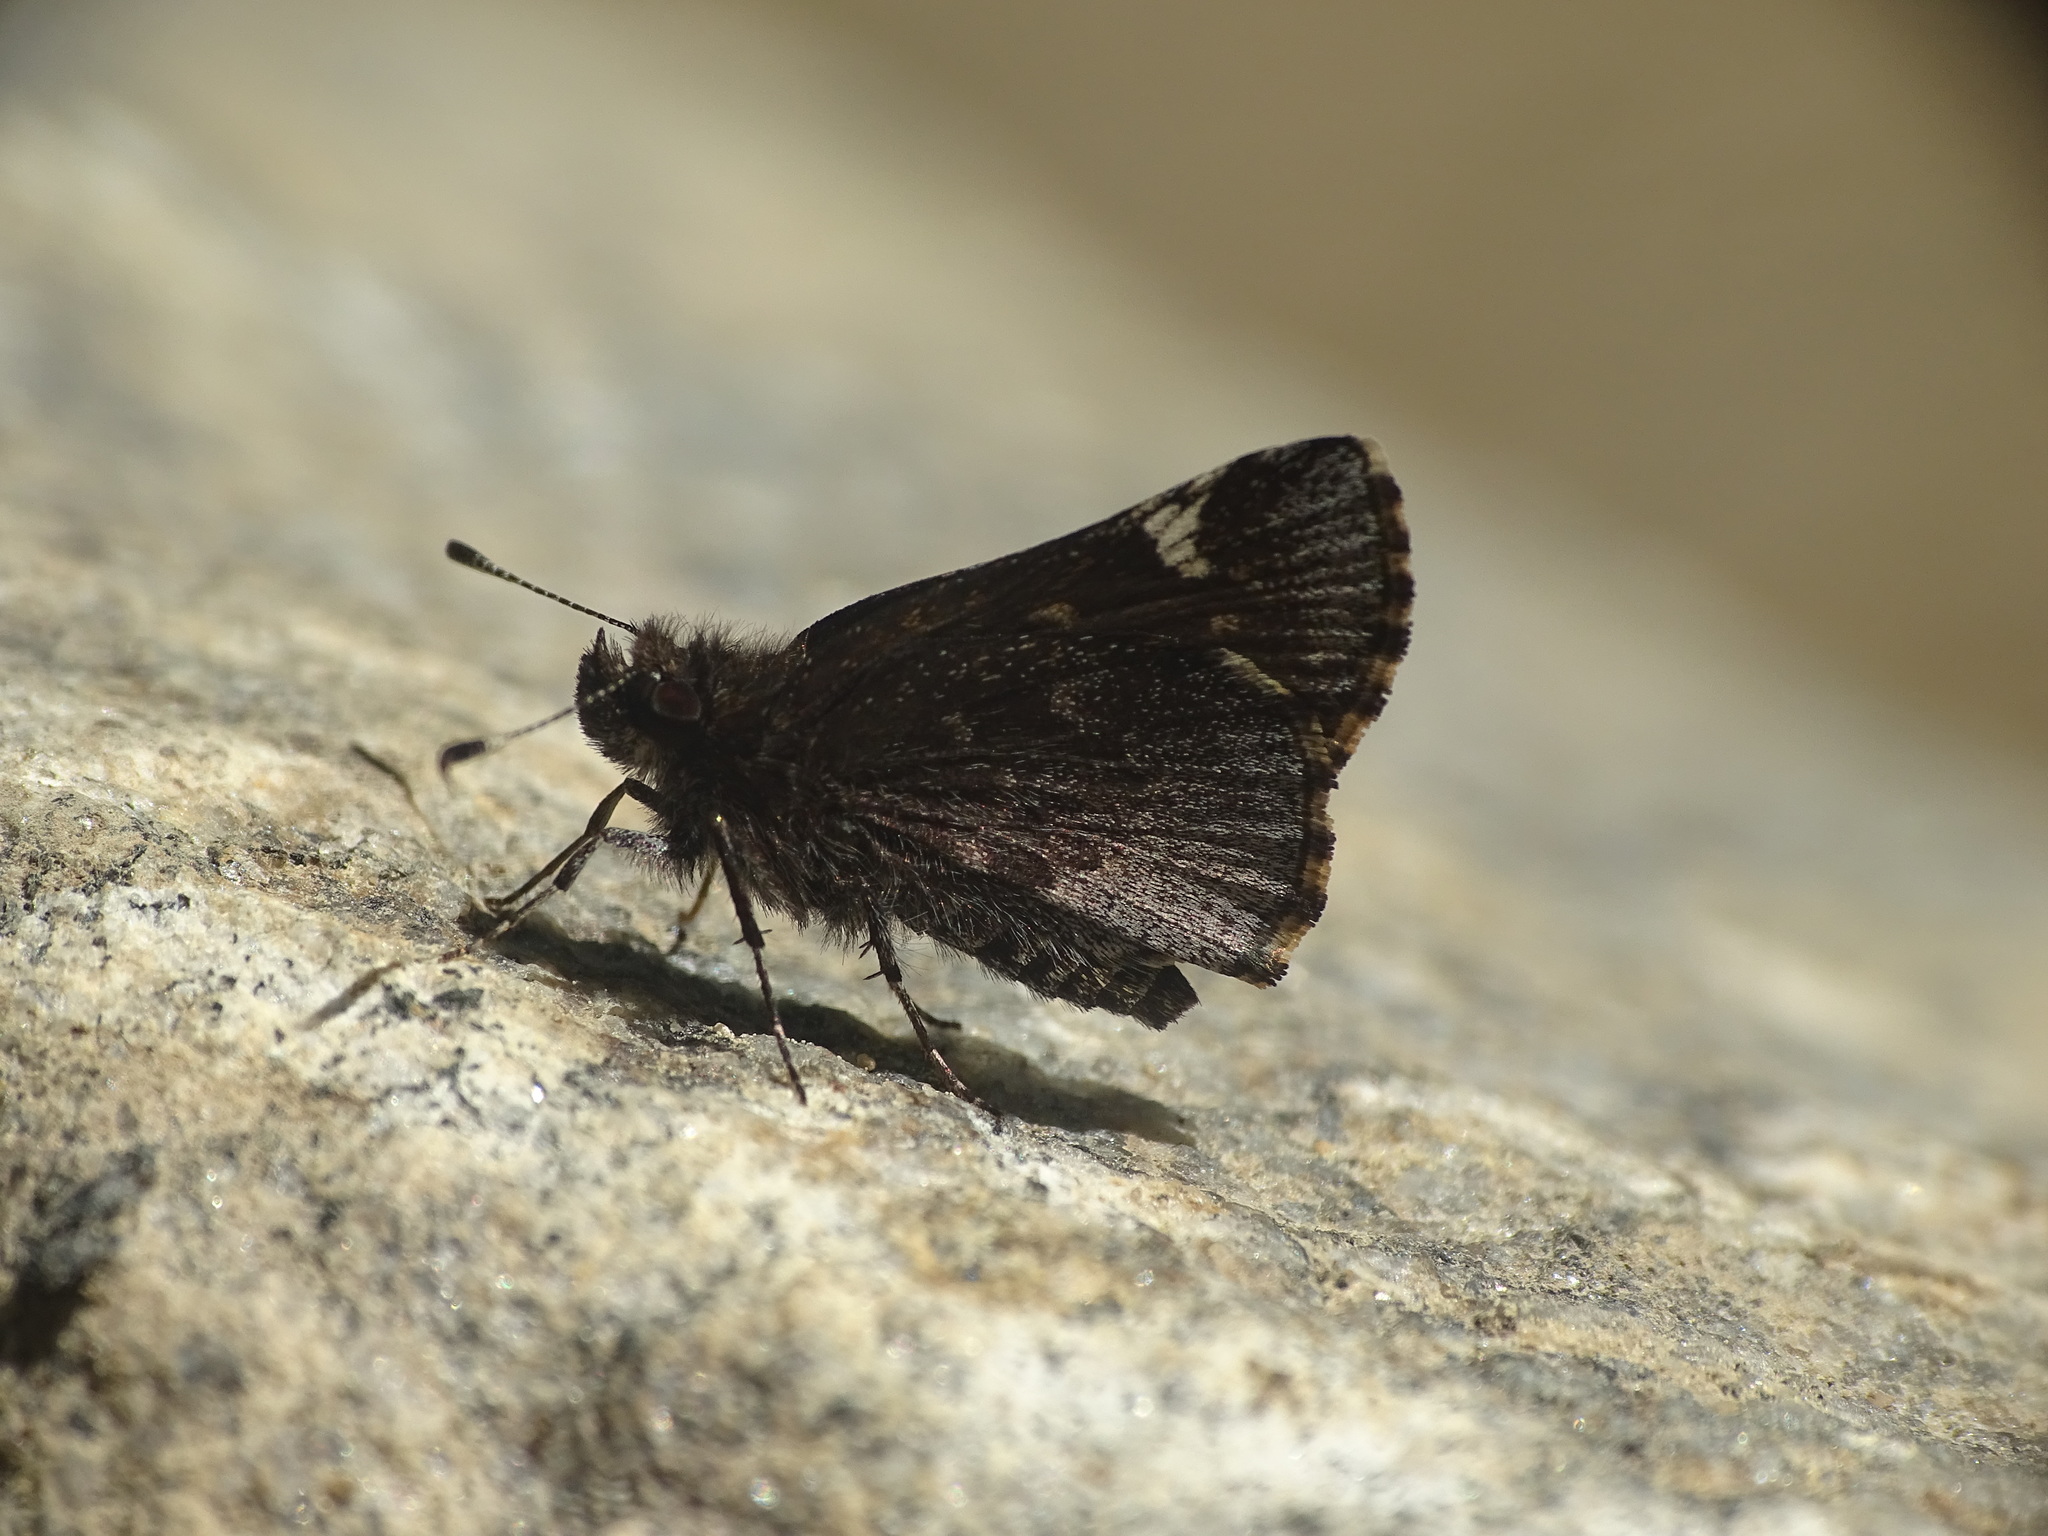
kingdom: Animalia
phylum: Arthropoda
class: Insecta
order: Lepidoptera
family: Hesperiidae
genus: Mastor
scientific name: Mastor vialis
